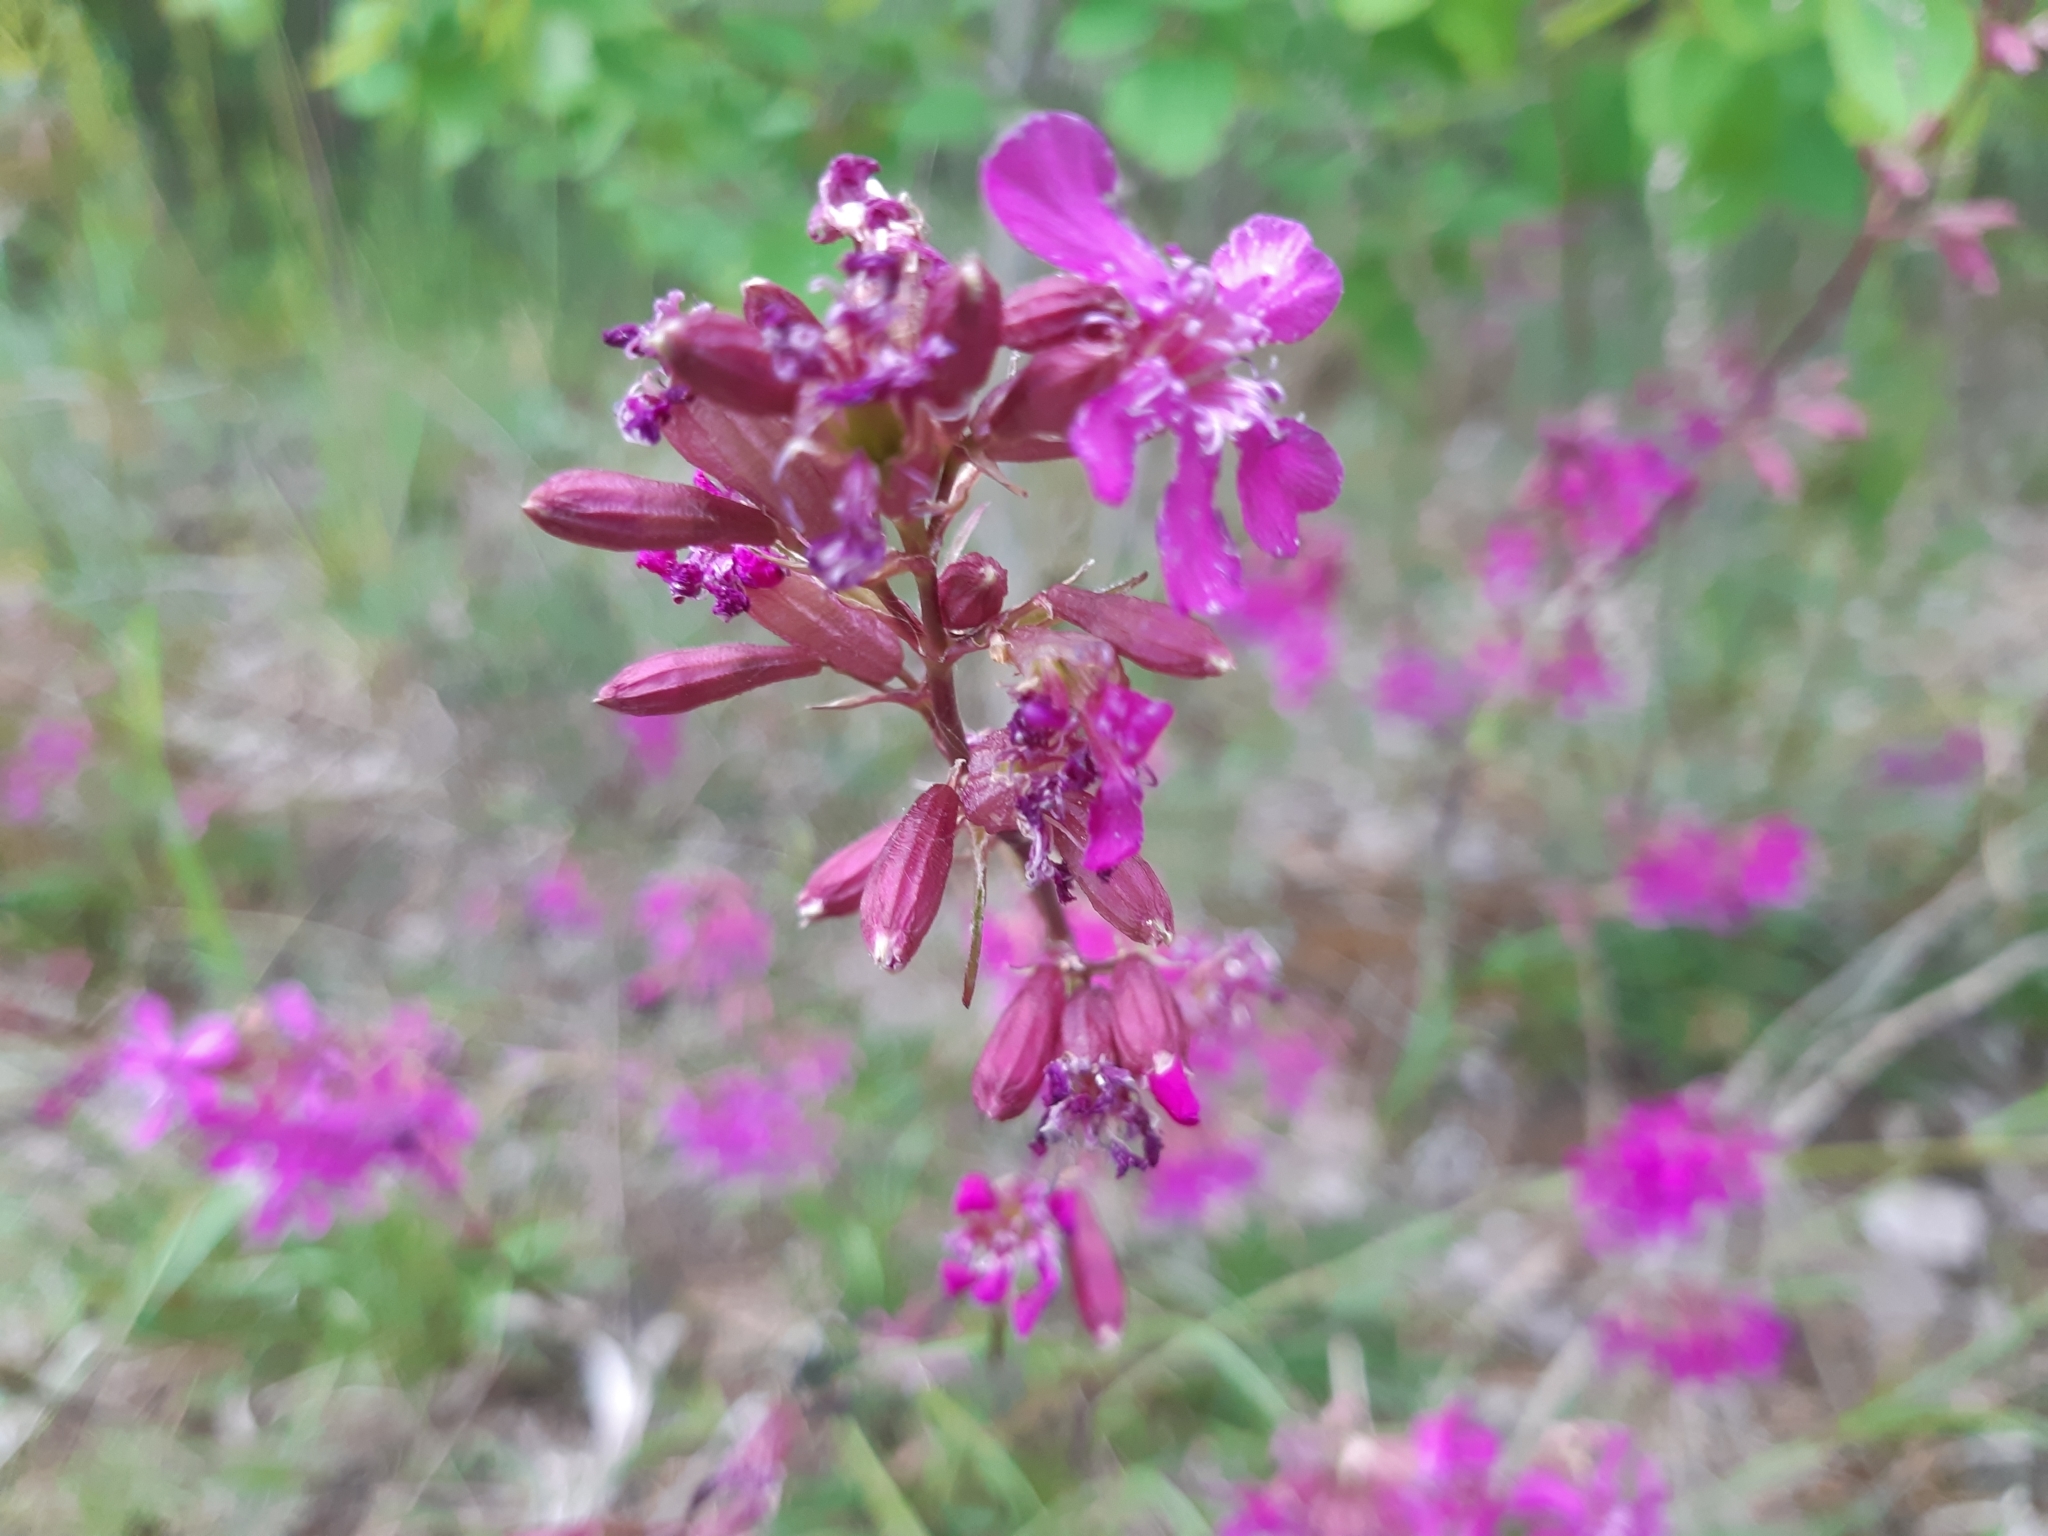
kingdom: Plantae
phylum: Tracheophyta
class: Magnoliopsida
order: Caryophyllales
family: Caryophyllaceae
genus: Viscaria
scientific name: Viscaria vulgaris
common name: Clammy campion
